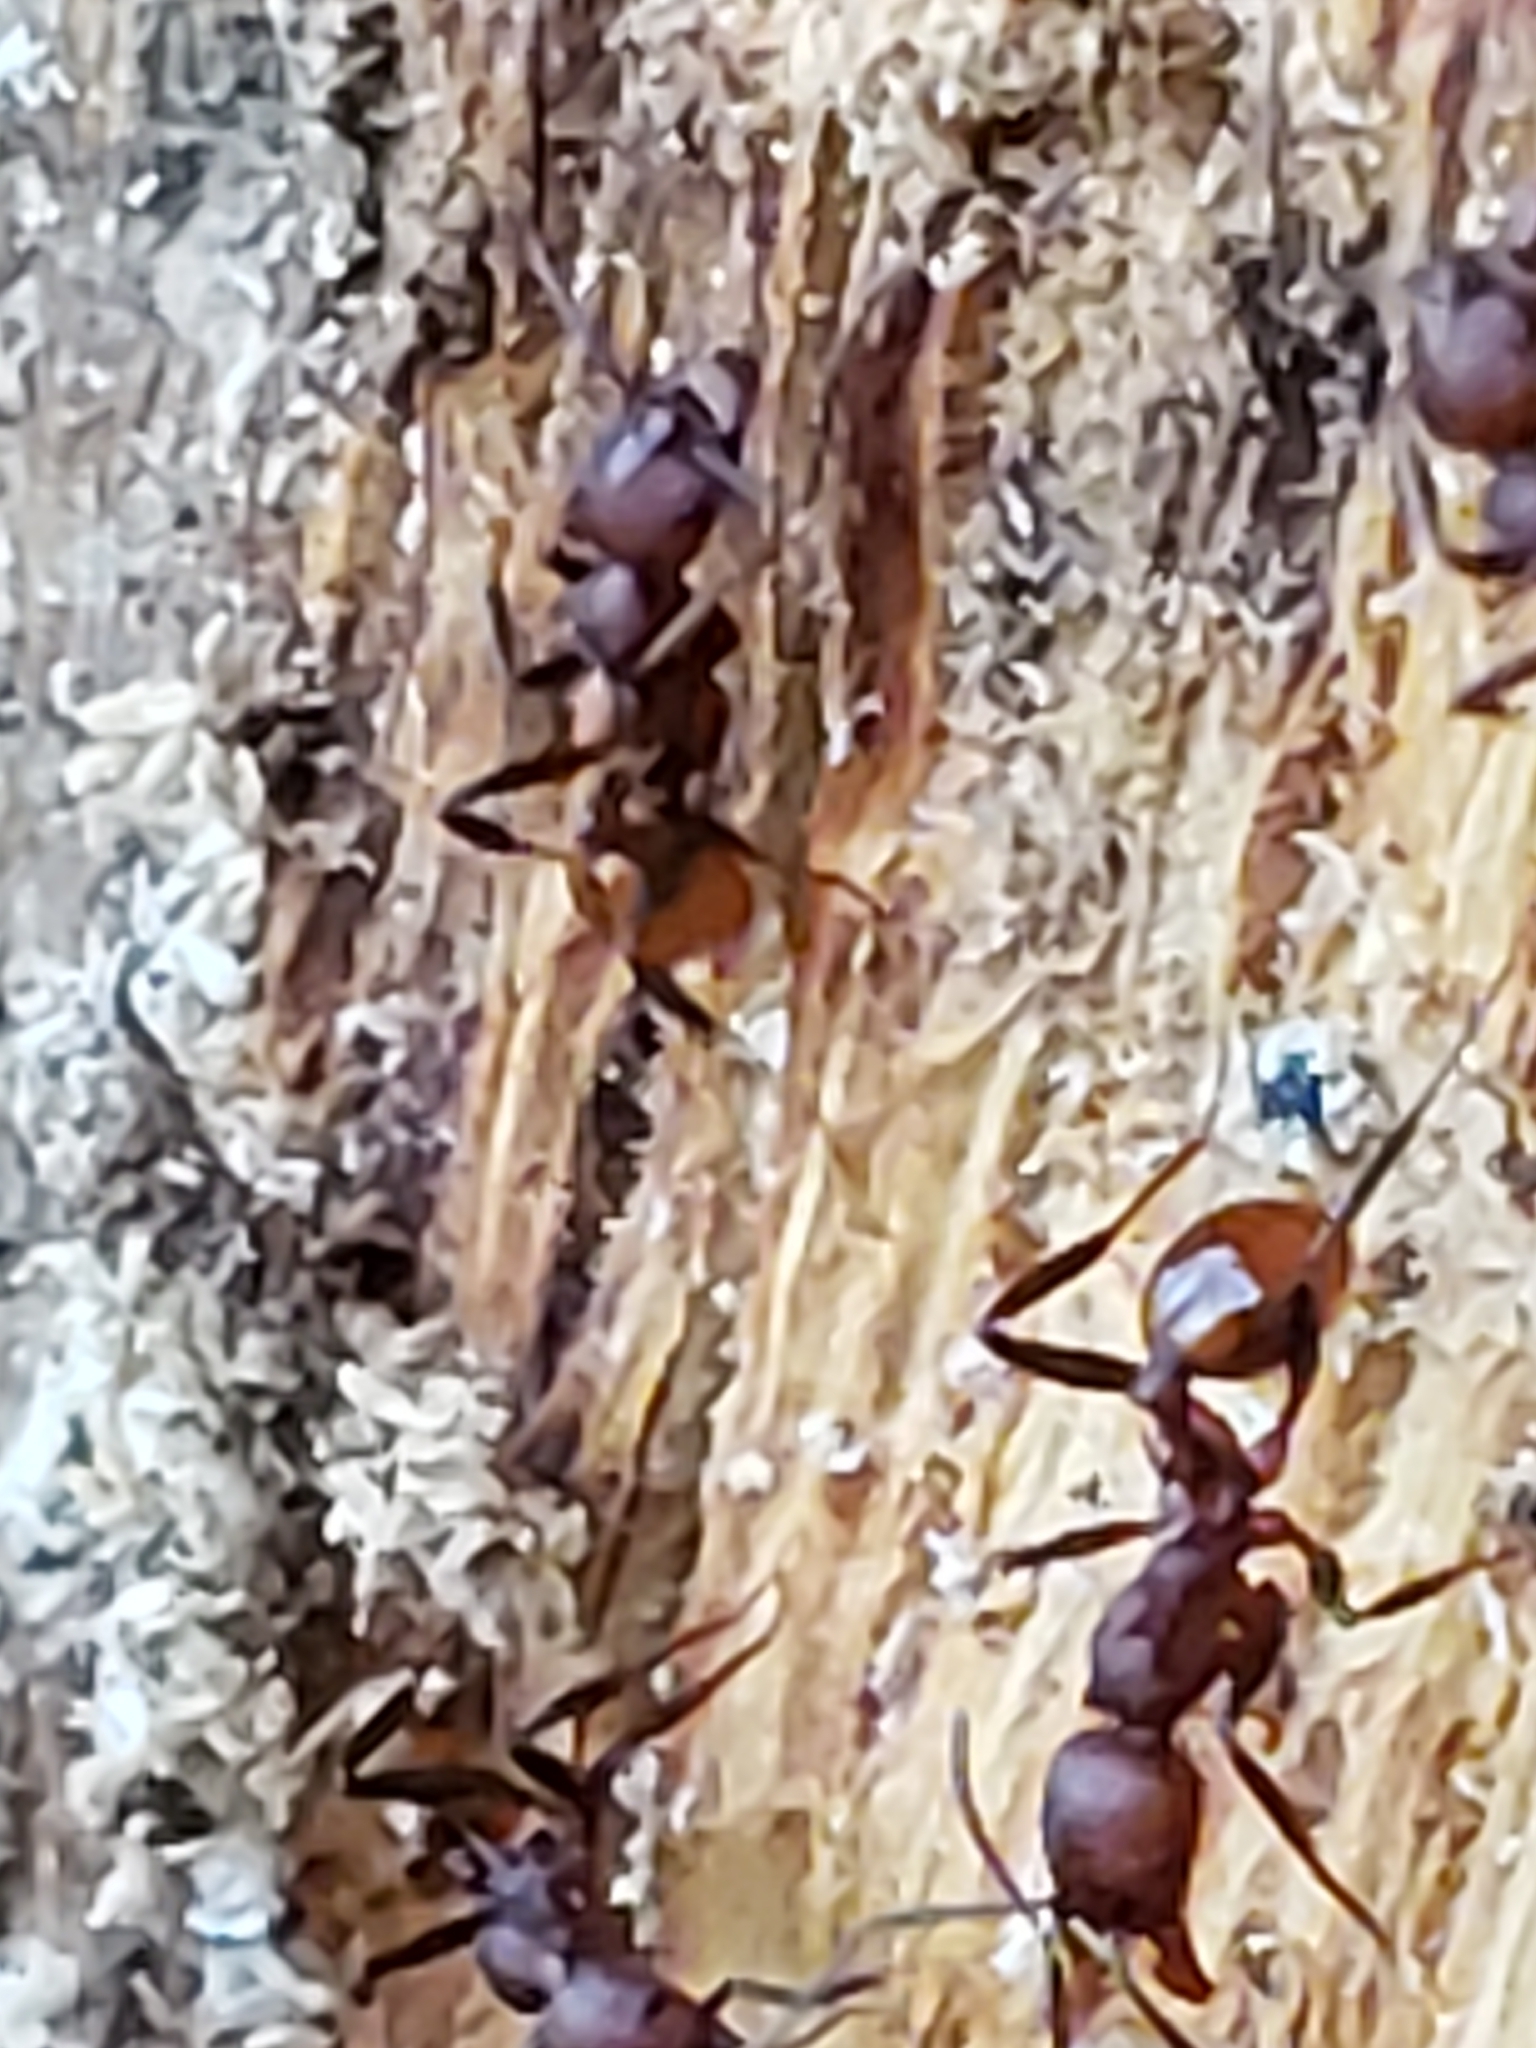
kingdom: Animalia
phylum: Arthropoda
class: Insecta
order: Hymenoptera
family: Formicidae
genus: Aphaenogaster
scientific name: Aphaenogaster tennesseensis
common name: Tennessee thread-waisted ant
